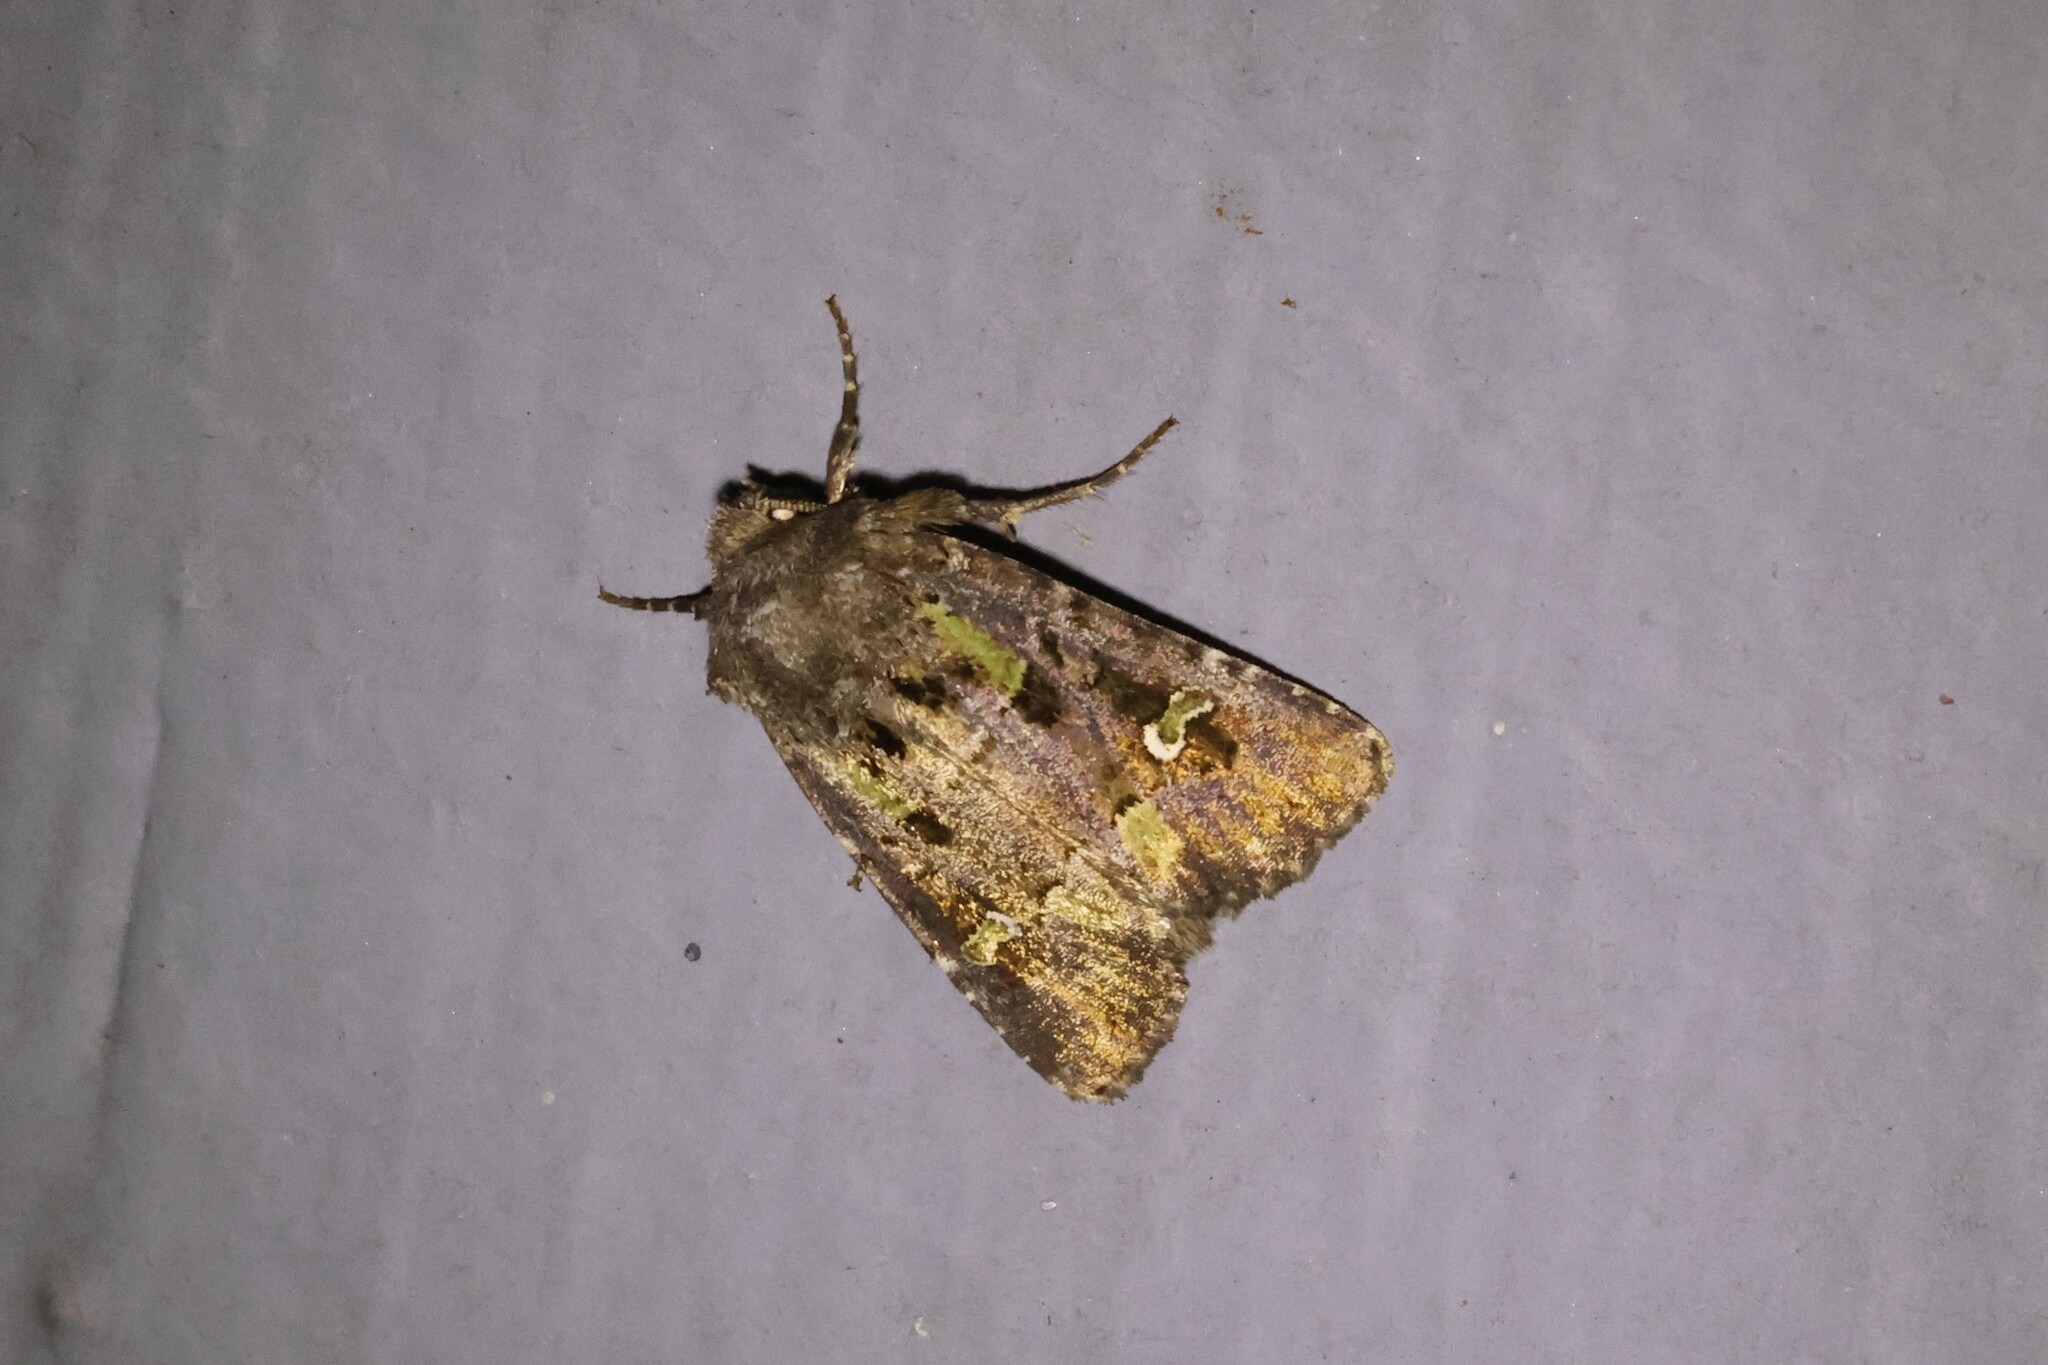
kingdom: Animalia
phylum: Arthropoda
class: Insecta
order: Lepidoptera
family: Noctuidae
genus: Lacinipolia
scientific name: Lacinipolia renigera
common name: Kidney-spotted minor
